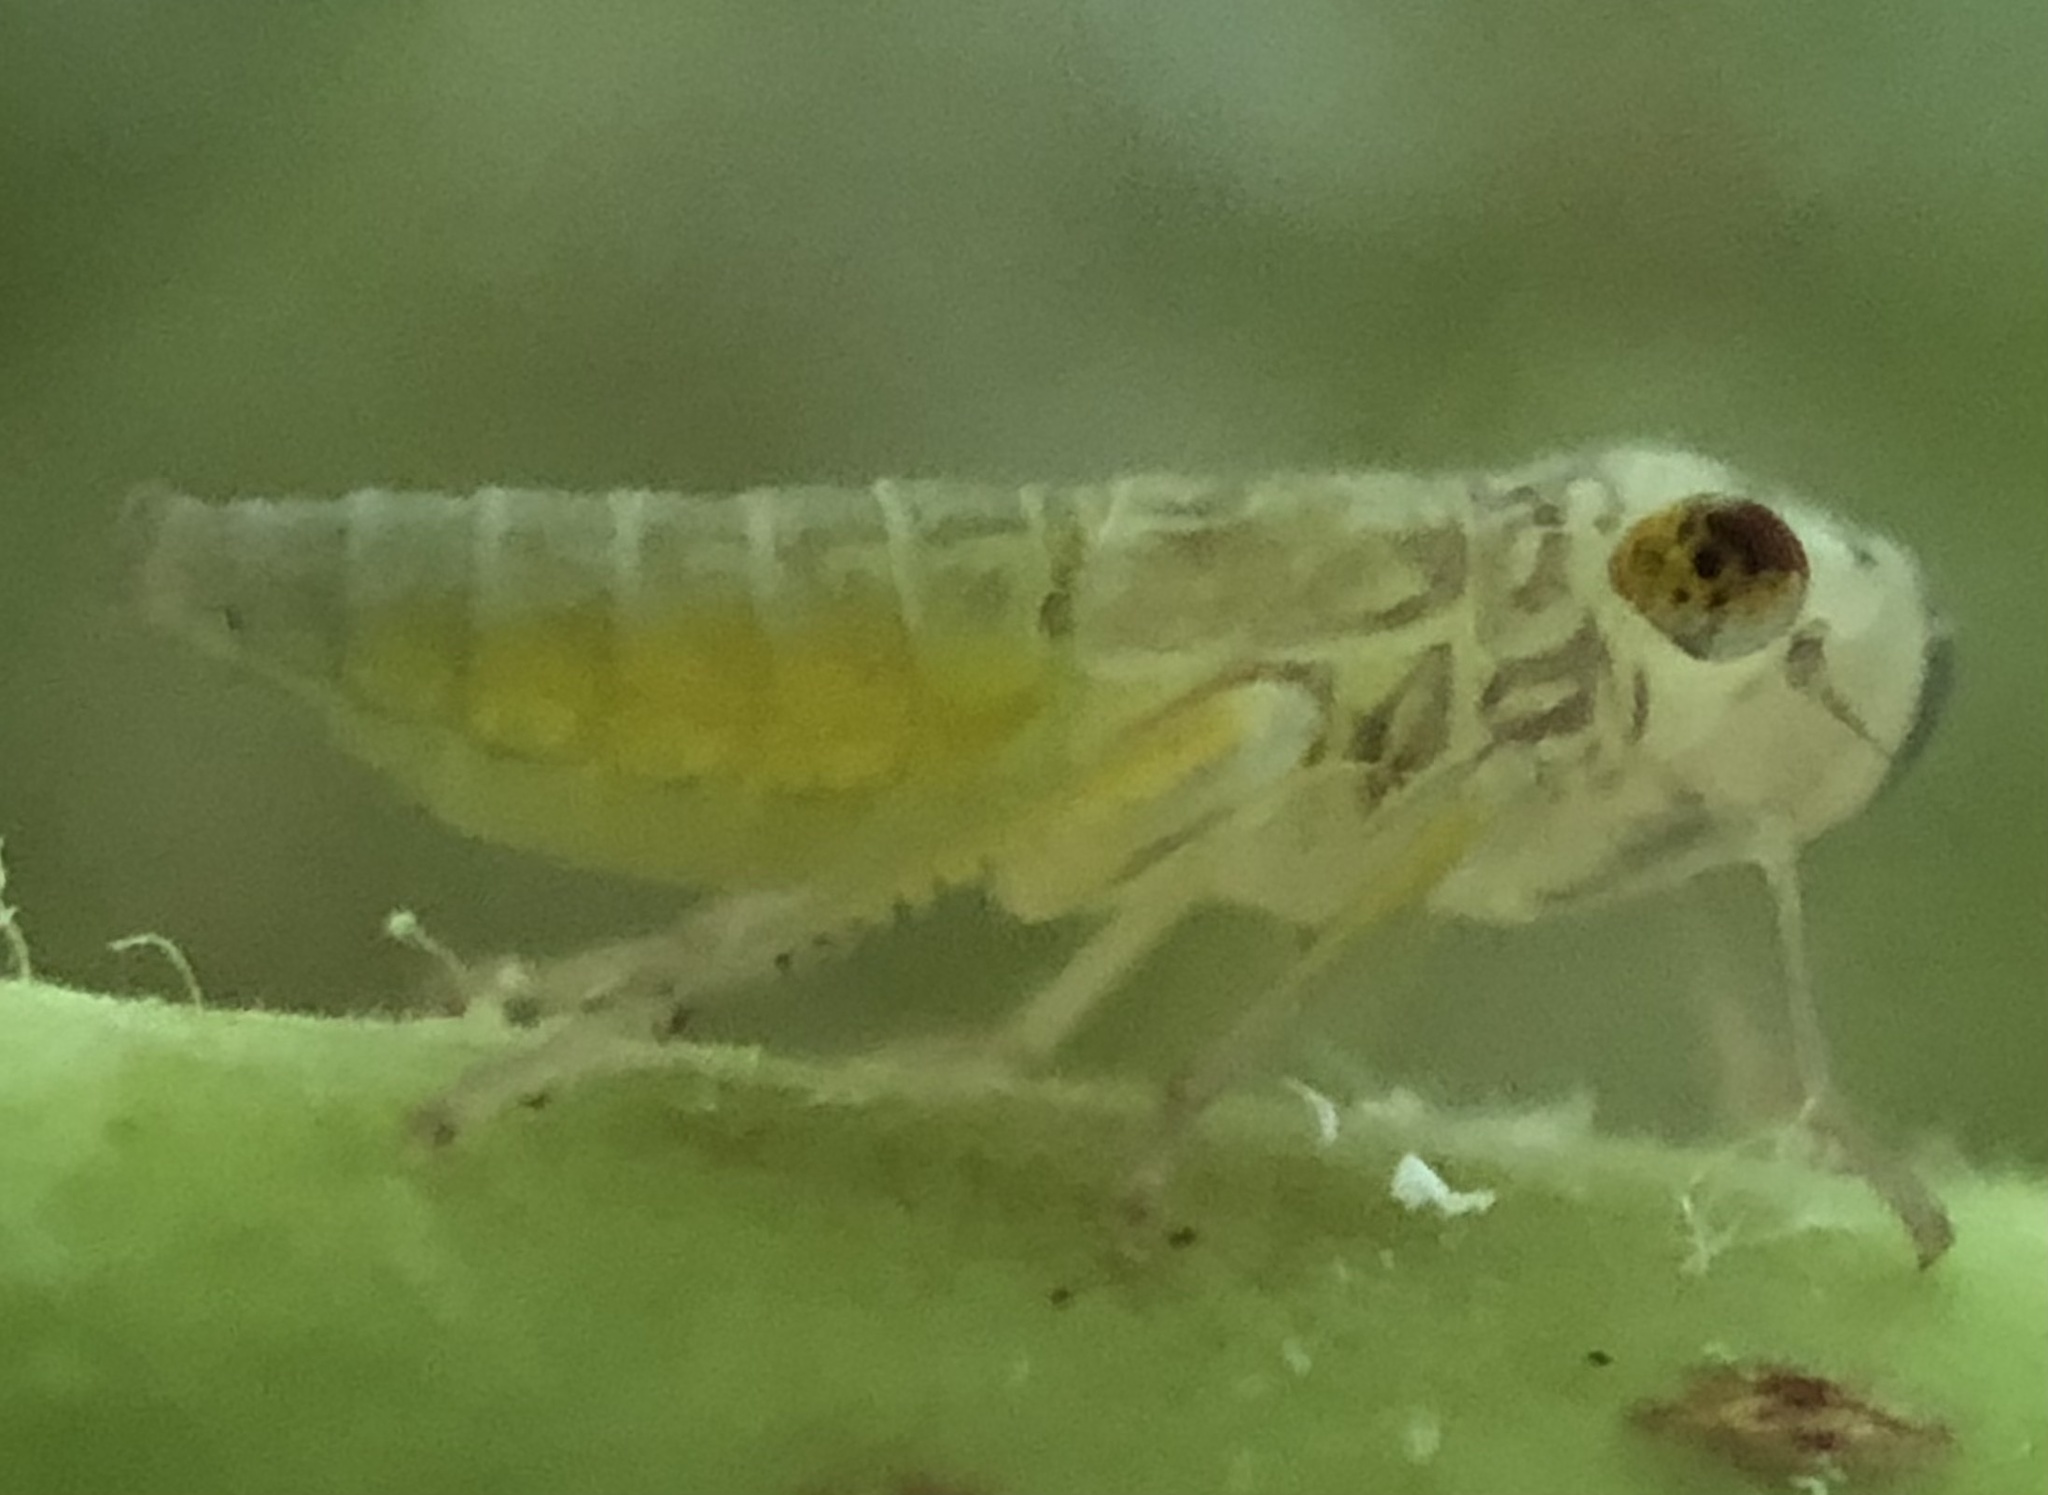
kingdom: Animalia
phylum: Arthropoda
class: Insecta
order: Hemiptera
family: Cicadellidae
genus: Oncometopia
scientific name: Oncometopia orbona
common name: Broad-headed sharpshooter
